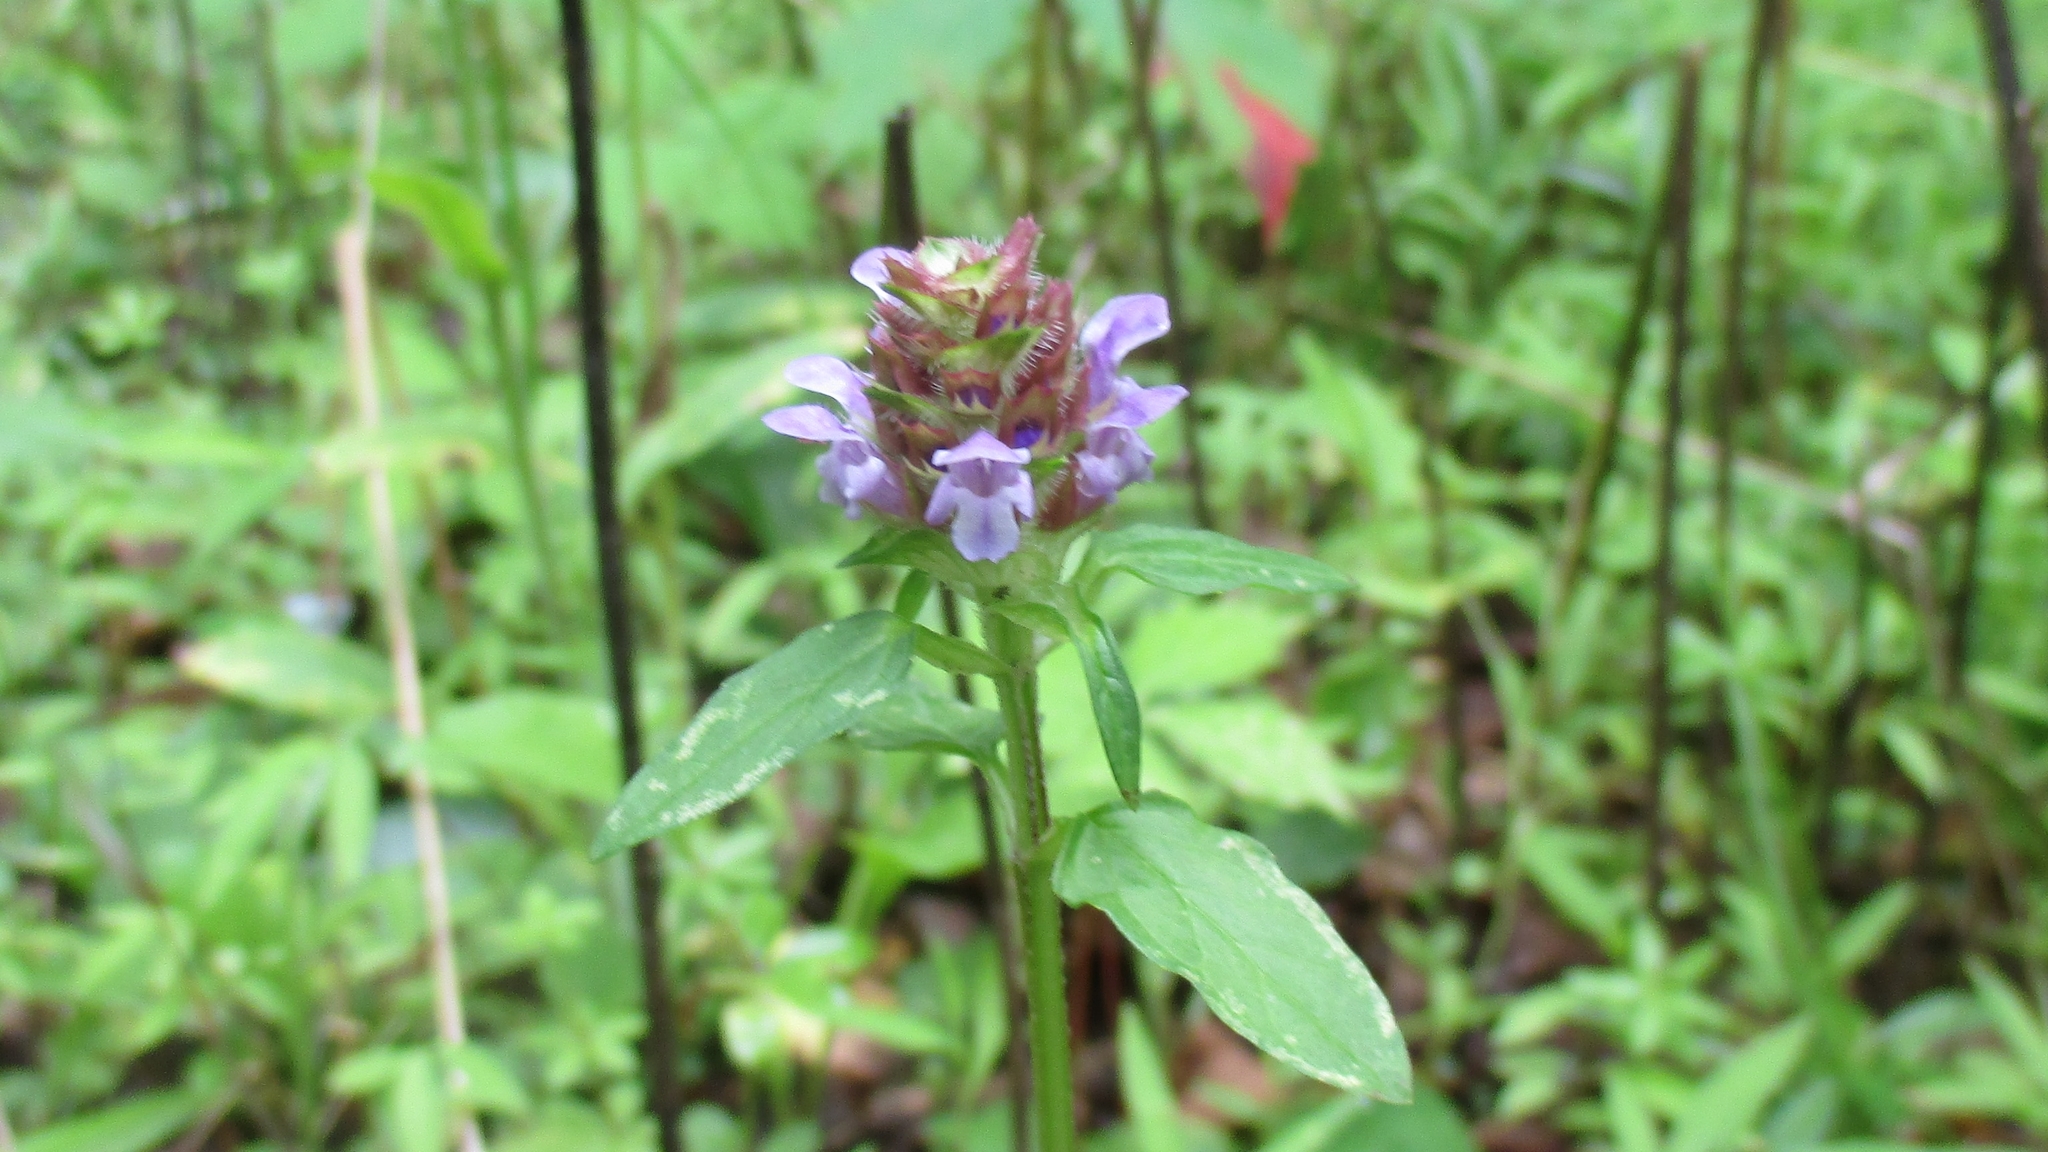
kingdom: Plantae
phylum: Tracheophyta
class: Magnoliopsida
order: Lamiales
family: Lamiaceae
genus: Prunella
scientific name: Prunella vulgaris
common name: Heal-all
